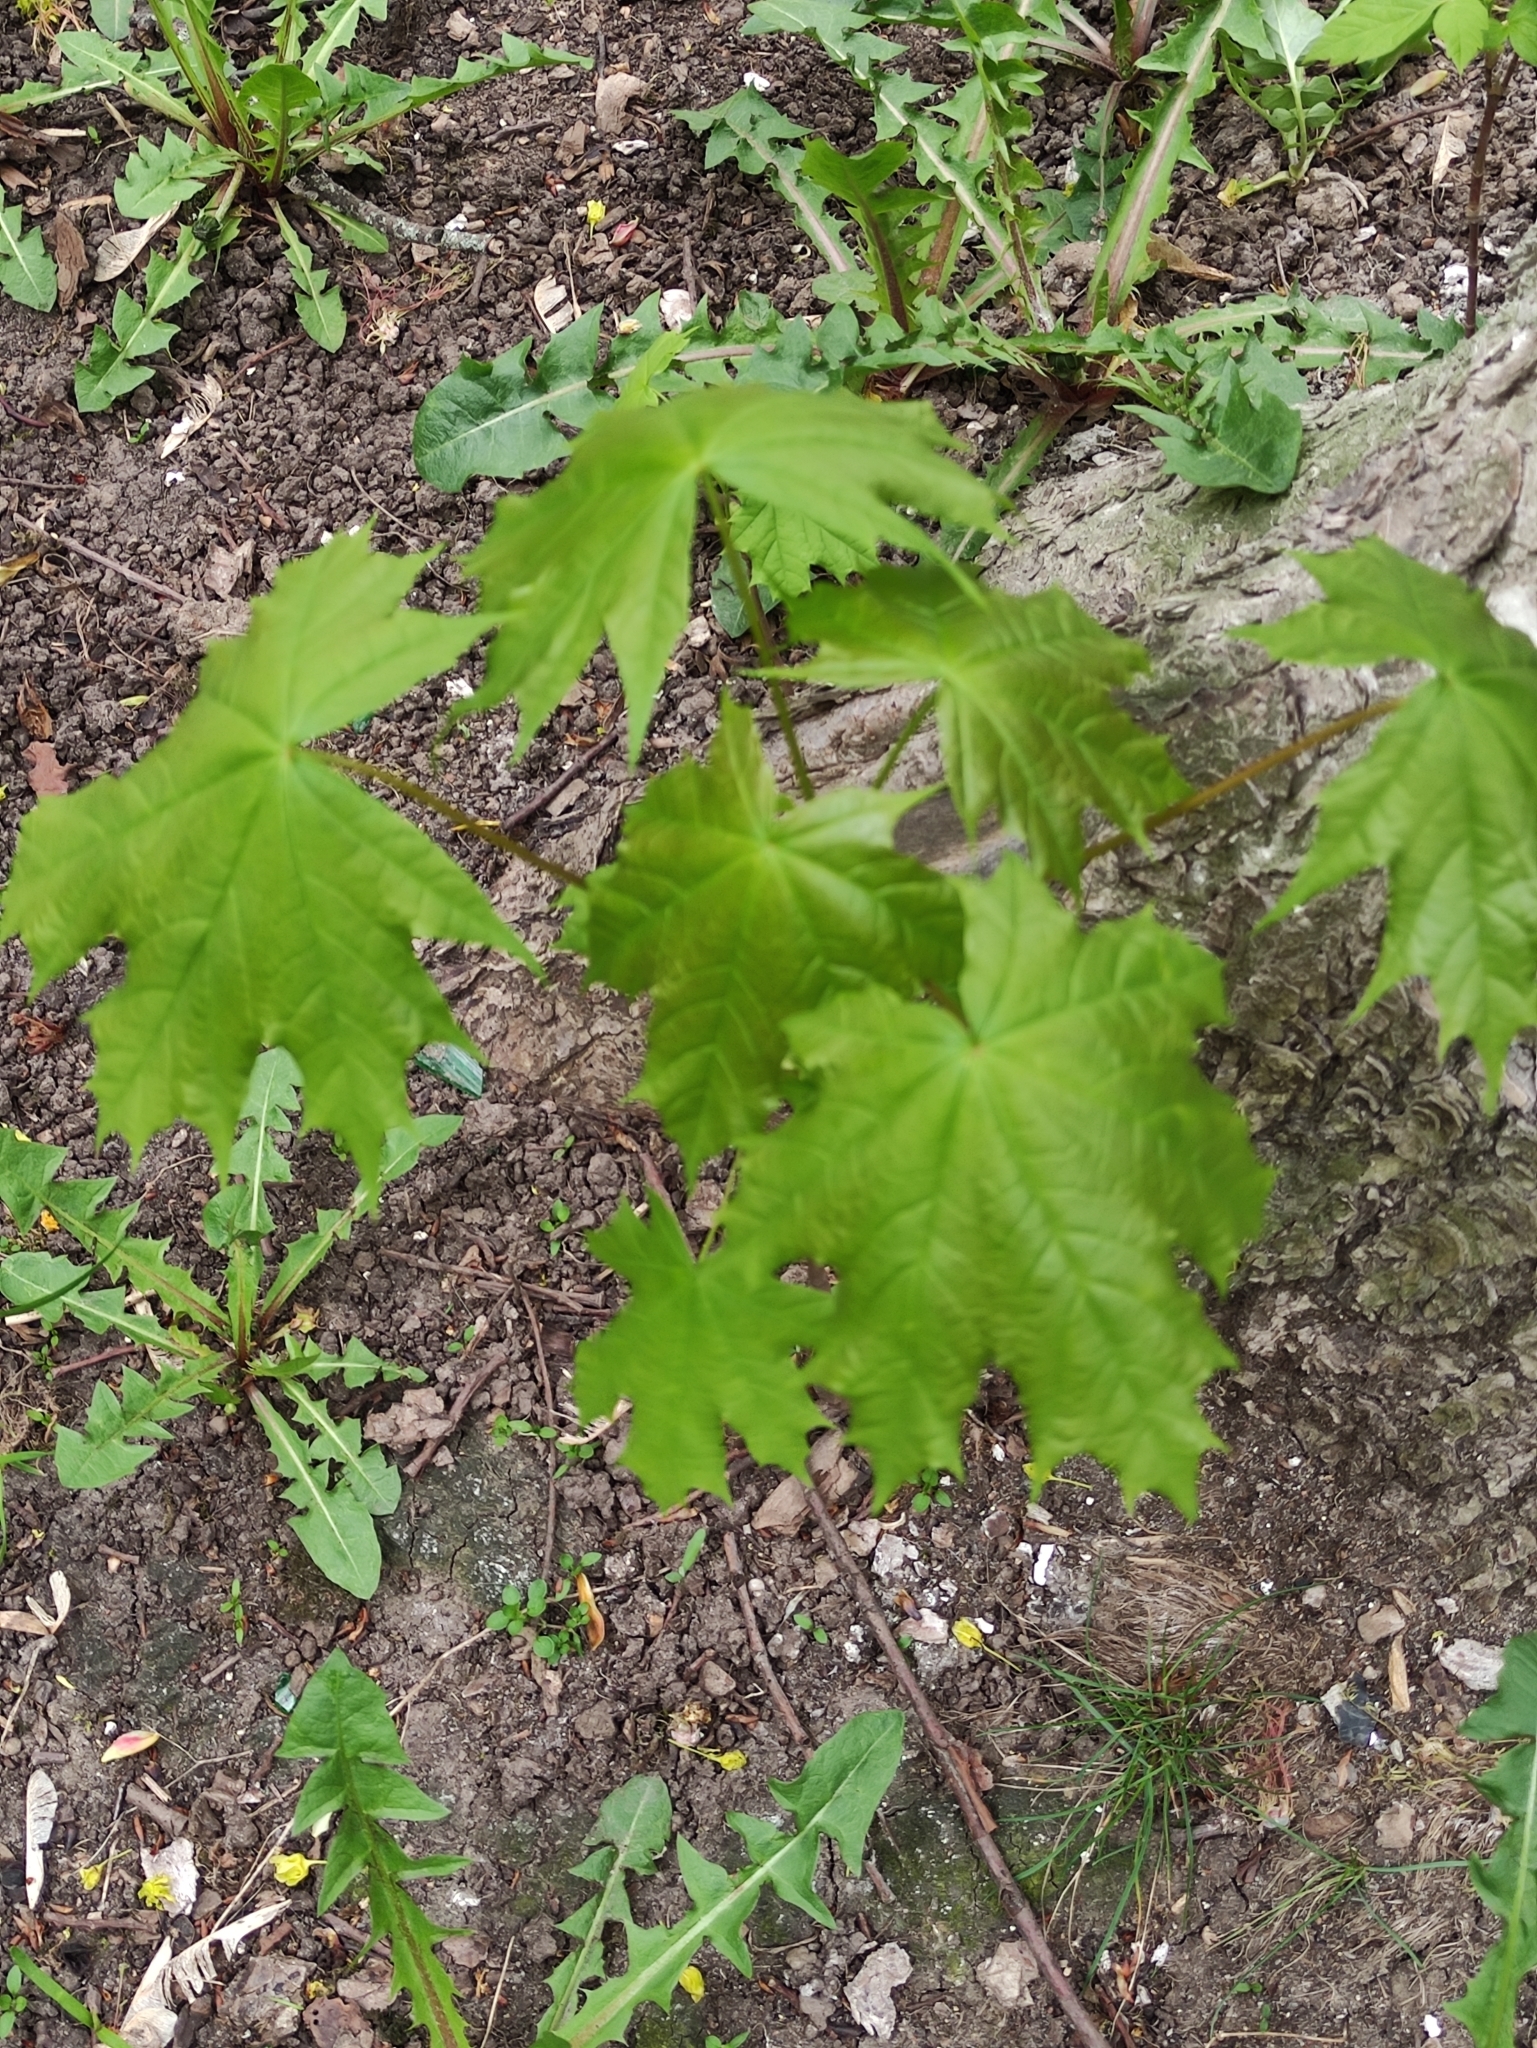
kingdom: Plantae
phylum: Tracheophyta
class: Magnoliopsida
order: Sapindales
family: Sapindaceae
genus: Acer
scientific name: Acer platanoides
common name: Norway maple
